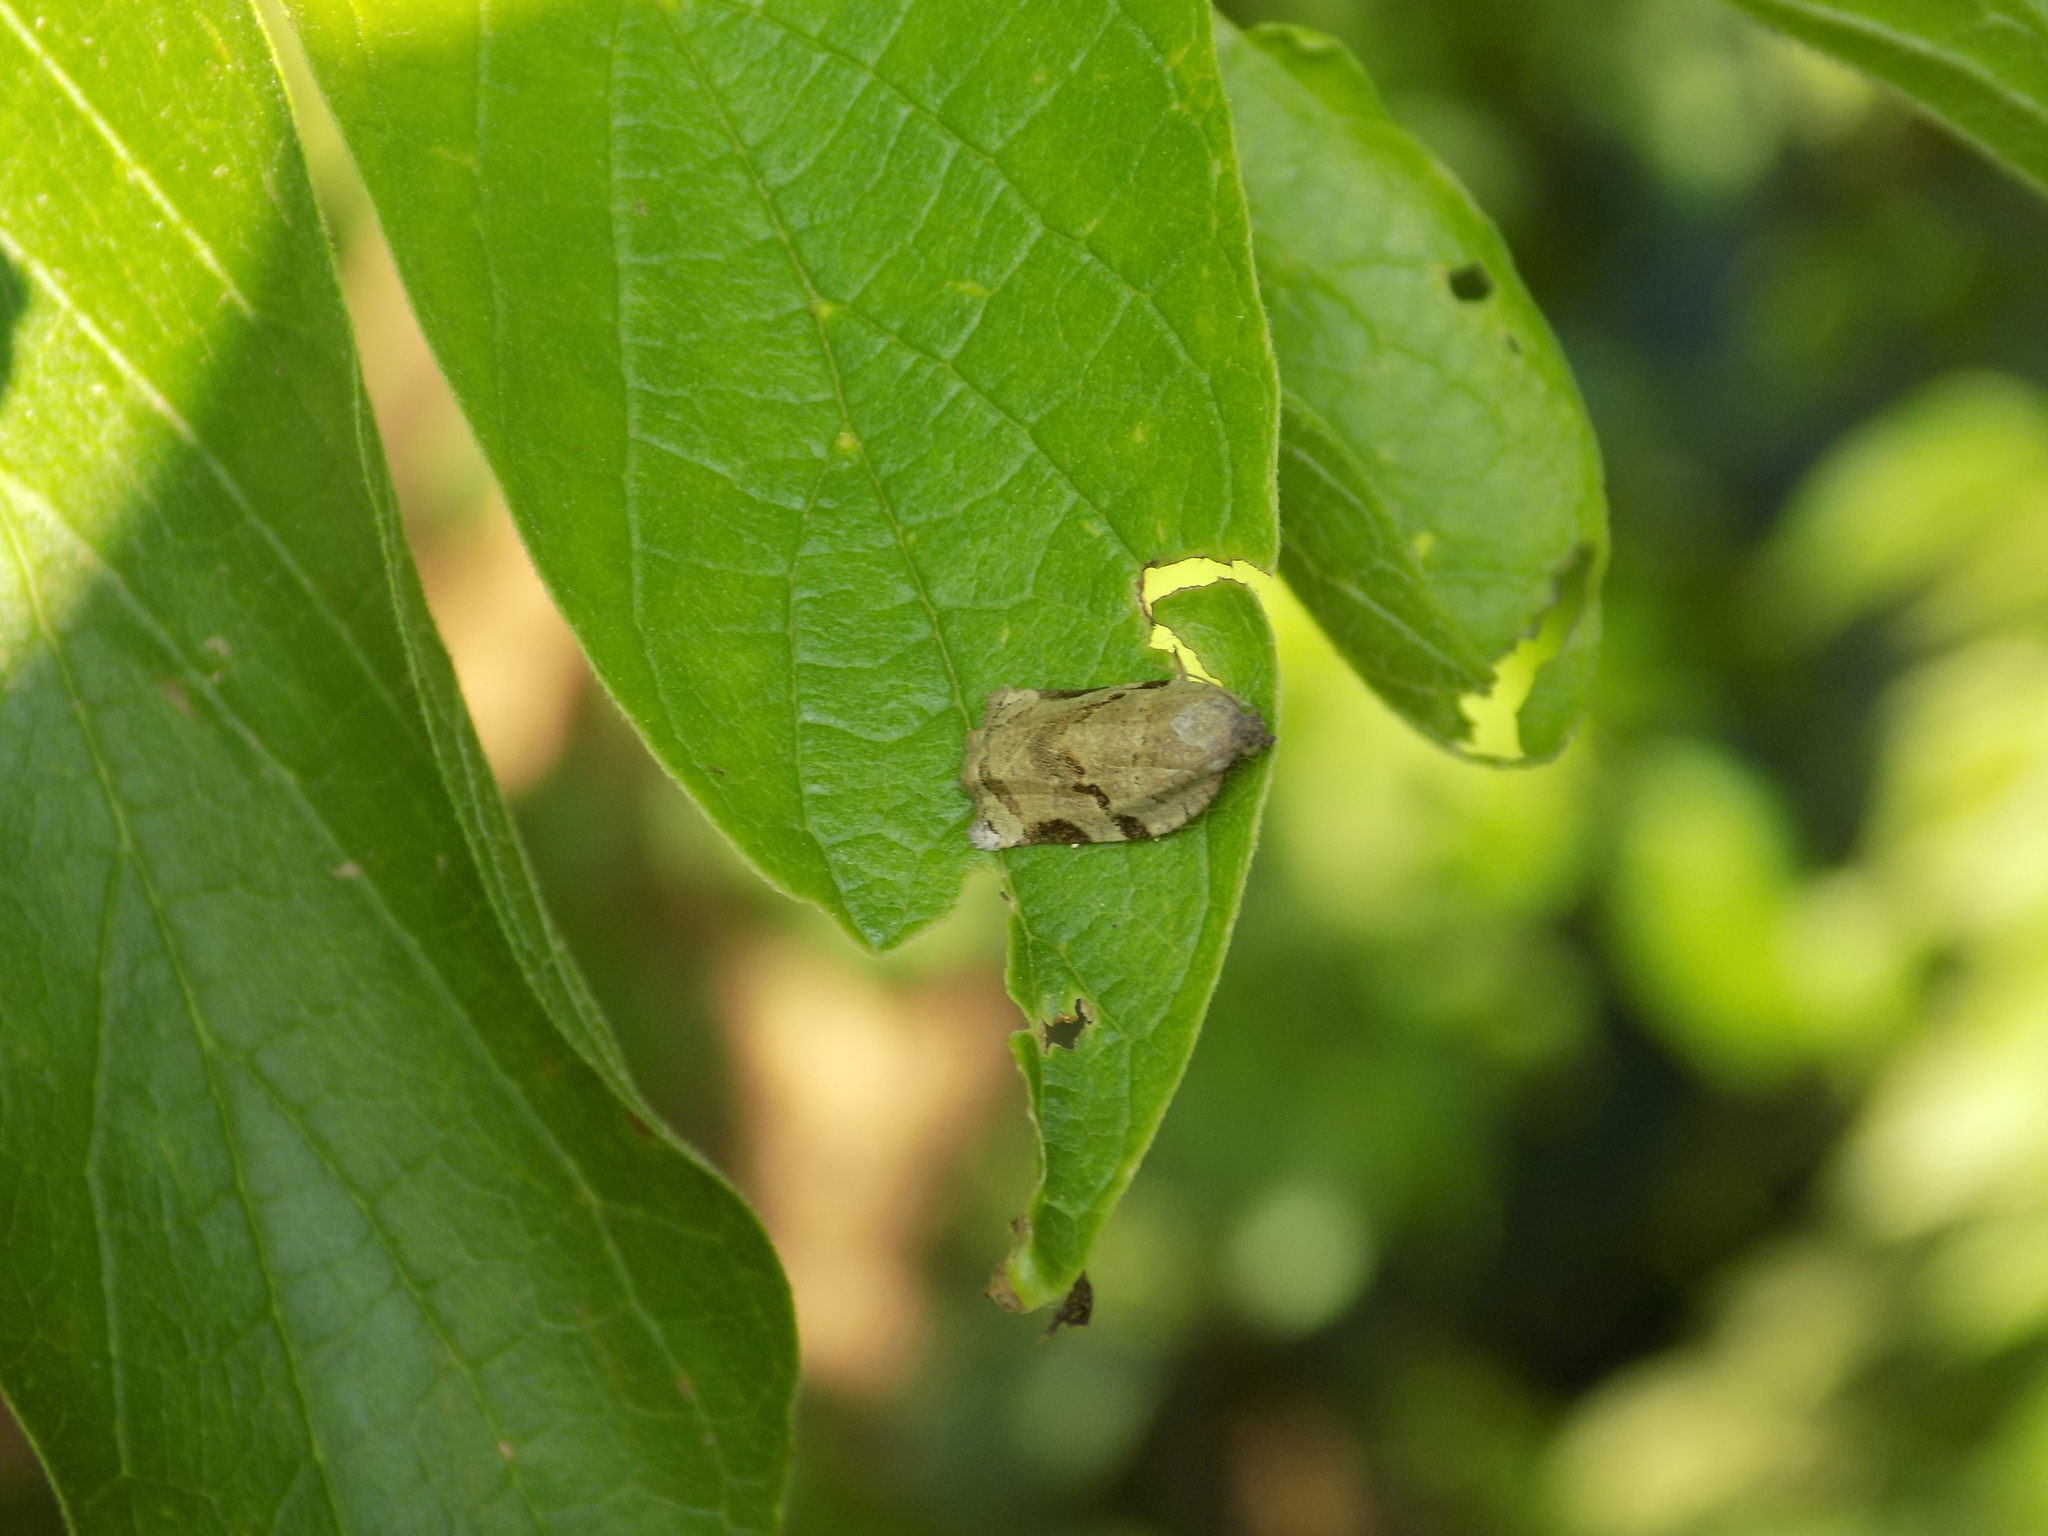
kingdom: Animalia
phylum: Arthropoda
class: Insecta
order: Lepidoptera
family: Tortricidae
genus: Archips
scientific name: Archips grisea
